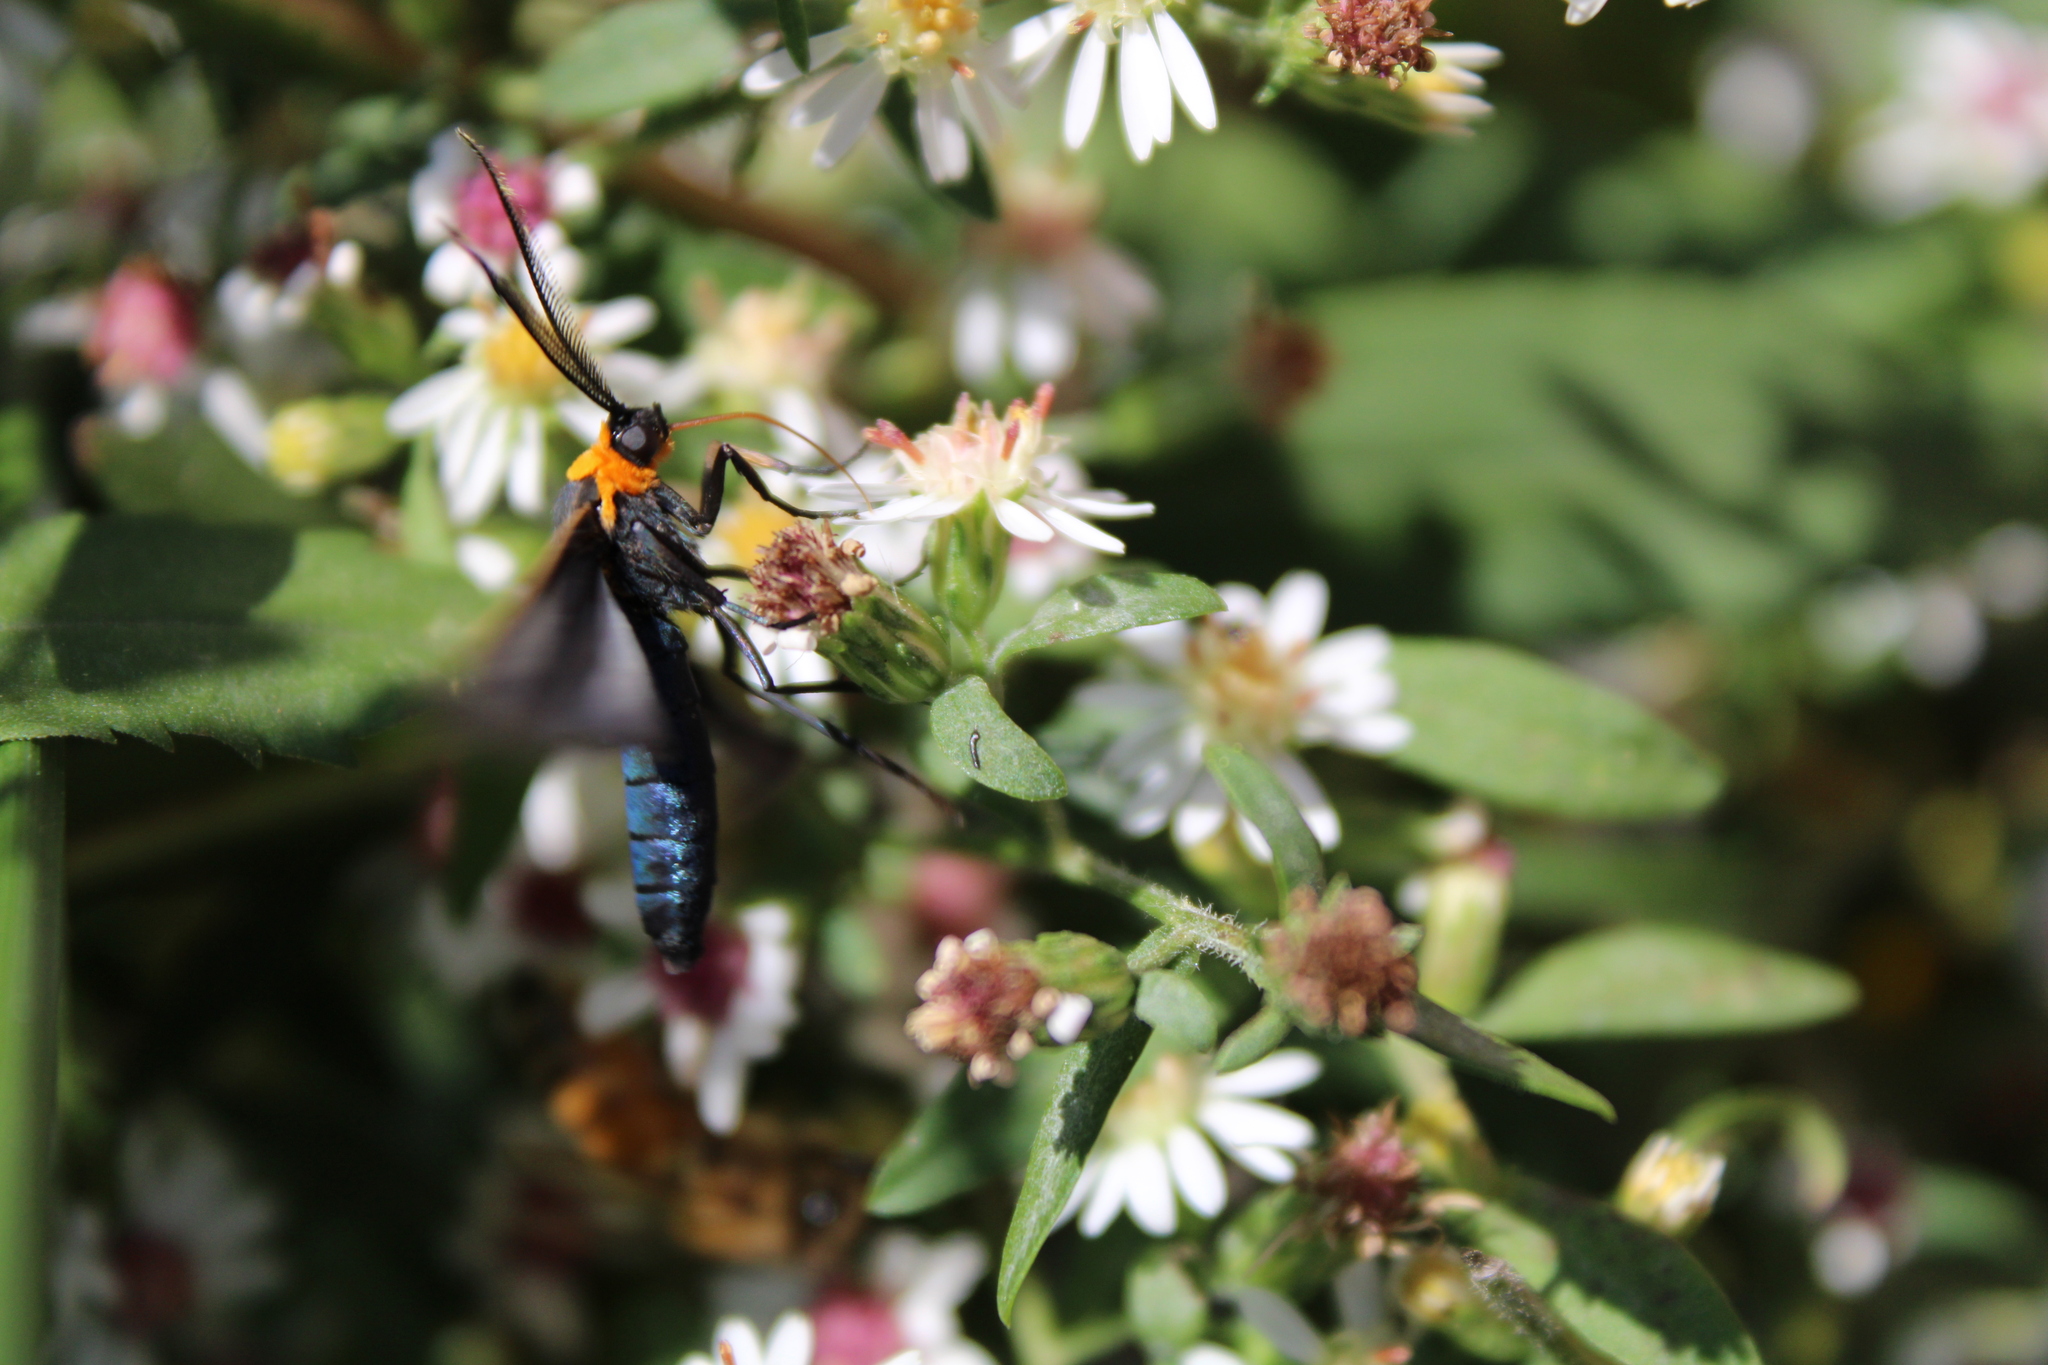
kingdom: Animalia
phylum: Arthropoda
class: Insecta
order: Lepidoptera
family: Erebidae
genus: Cisseps
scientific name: Cisseps fulvicollis
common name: Yellow-collared scape moth
